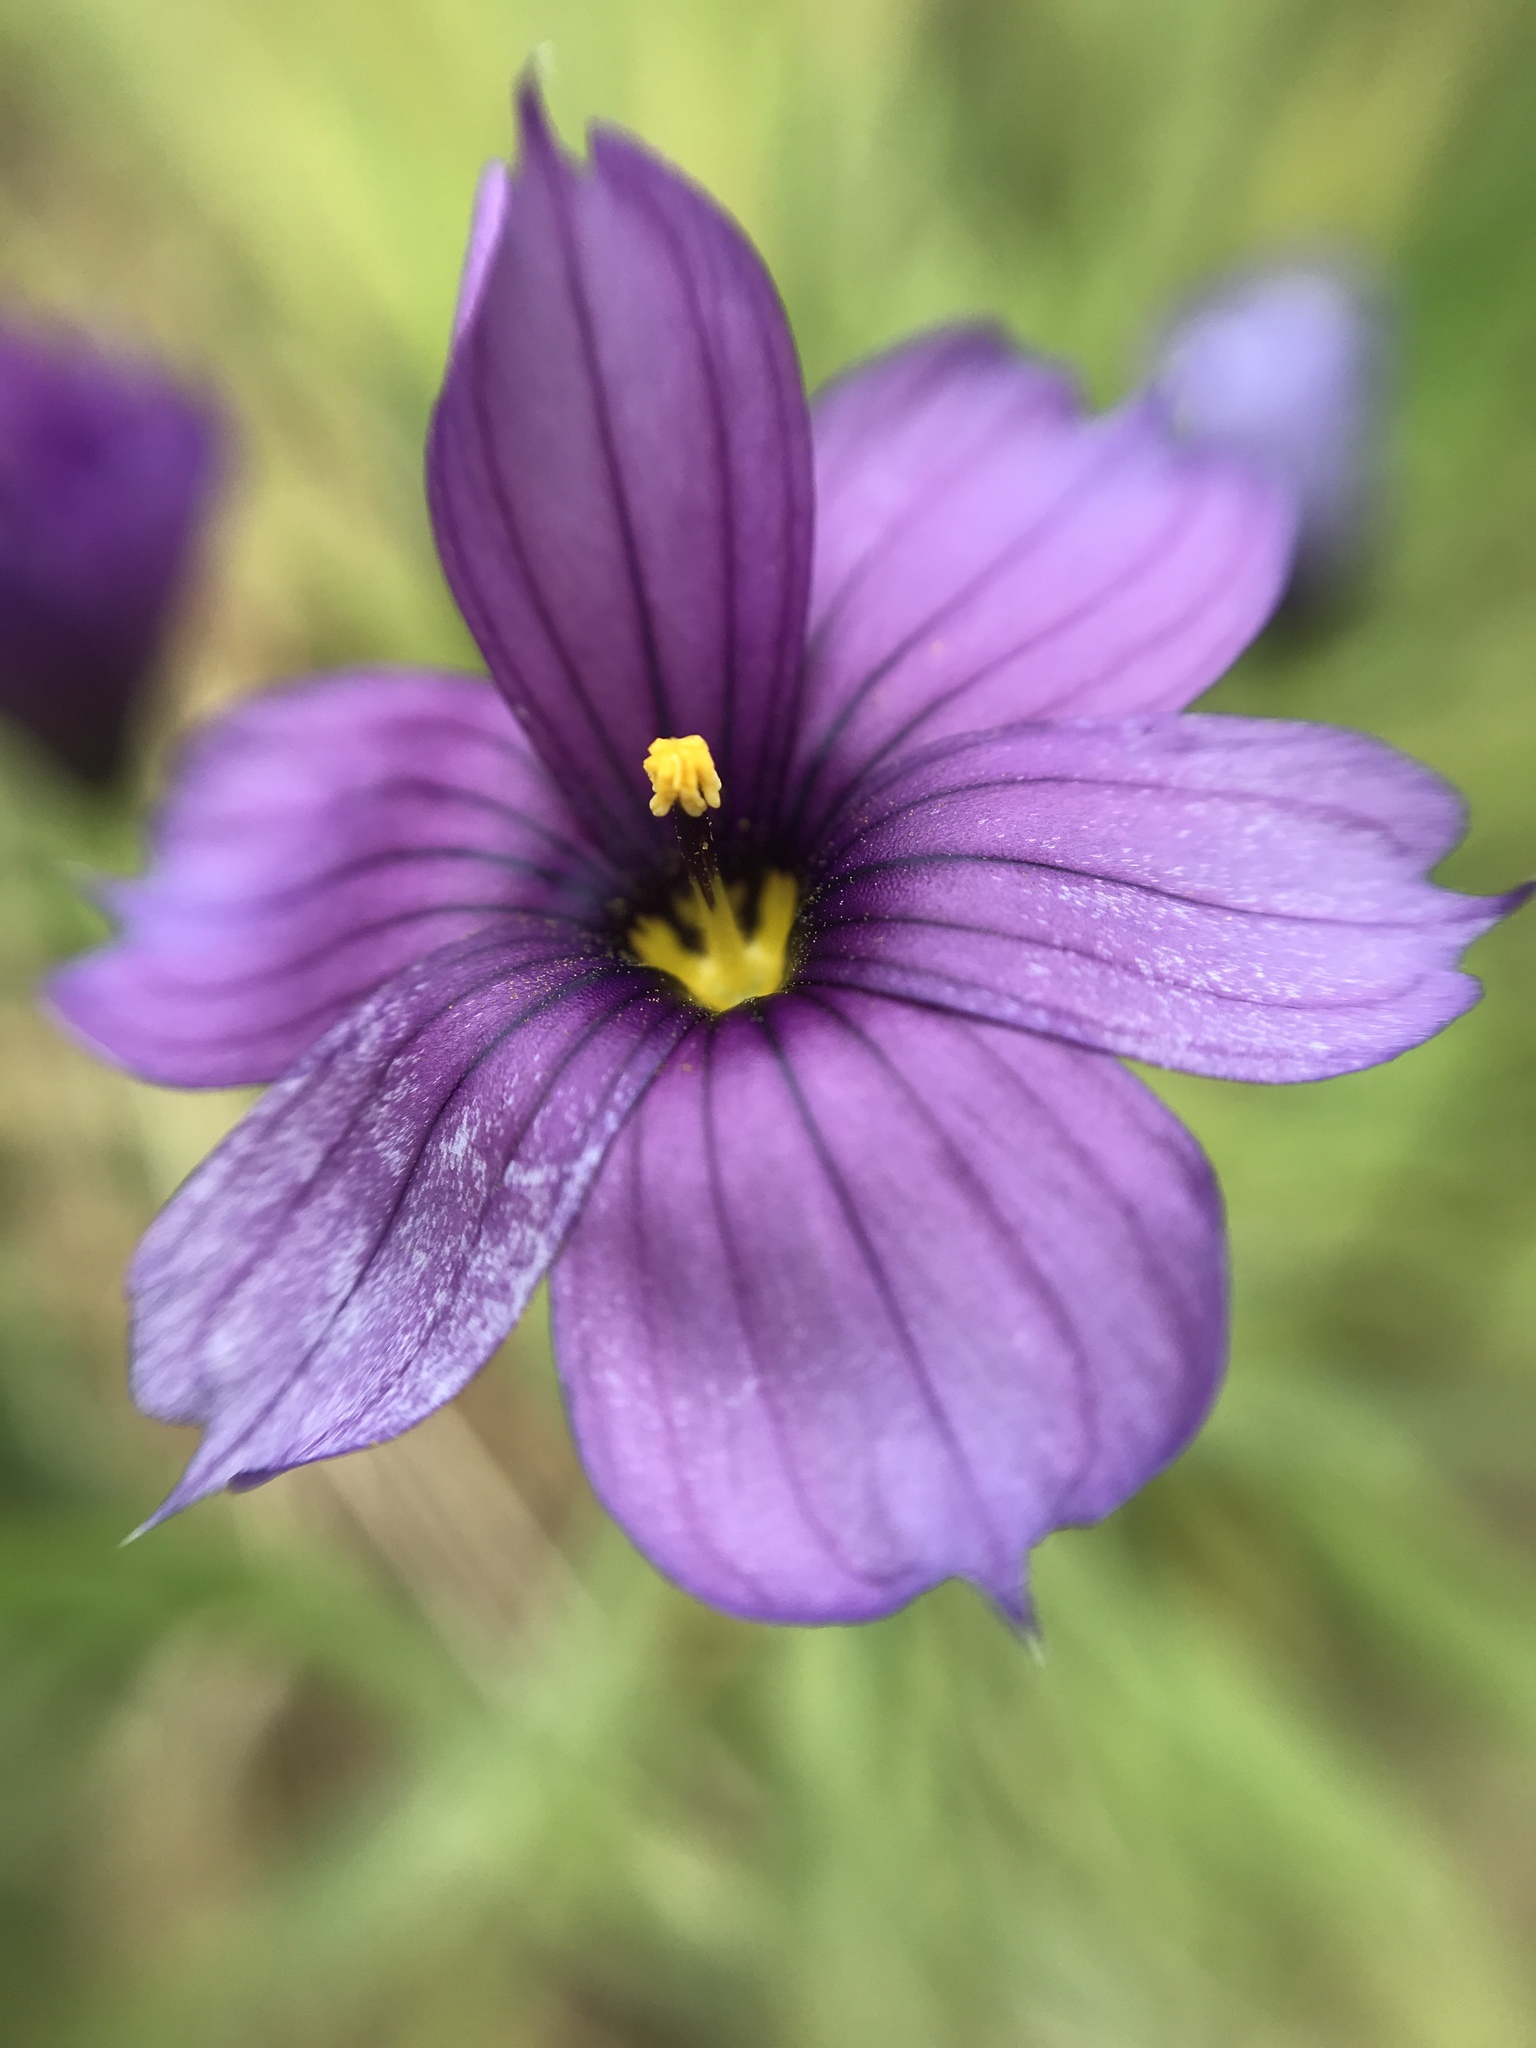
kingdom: Plantae
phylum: Tracheophyta
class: Liliopsida
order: Asparagales
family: Iridaceae
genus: Sisyrinchium
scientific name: Sisyrinchium bellum
